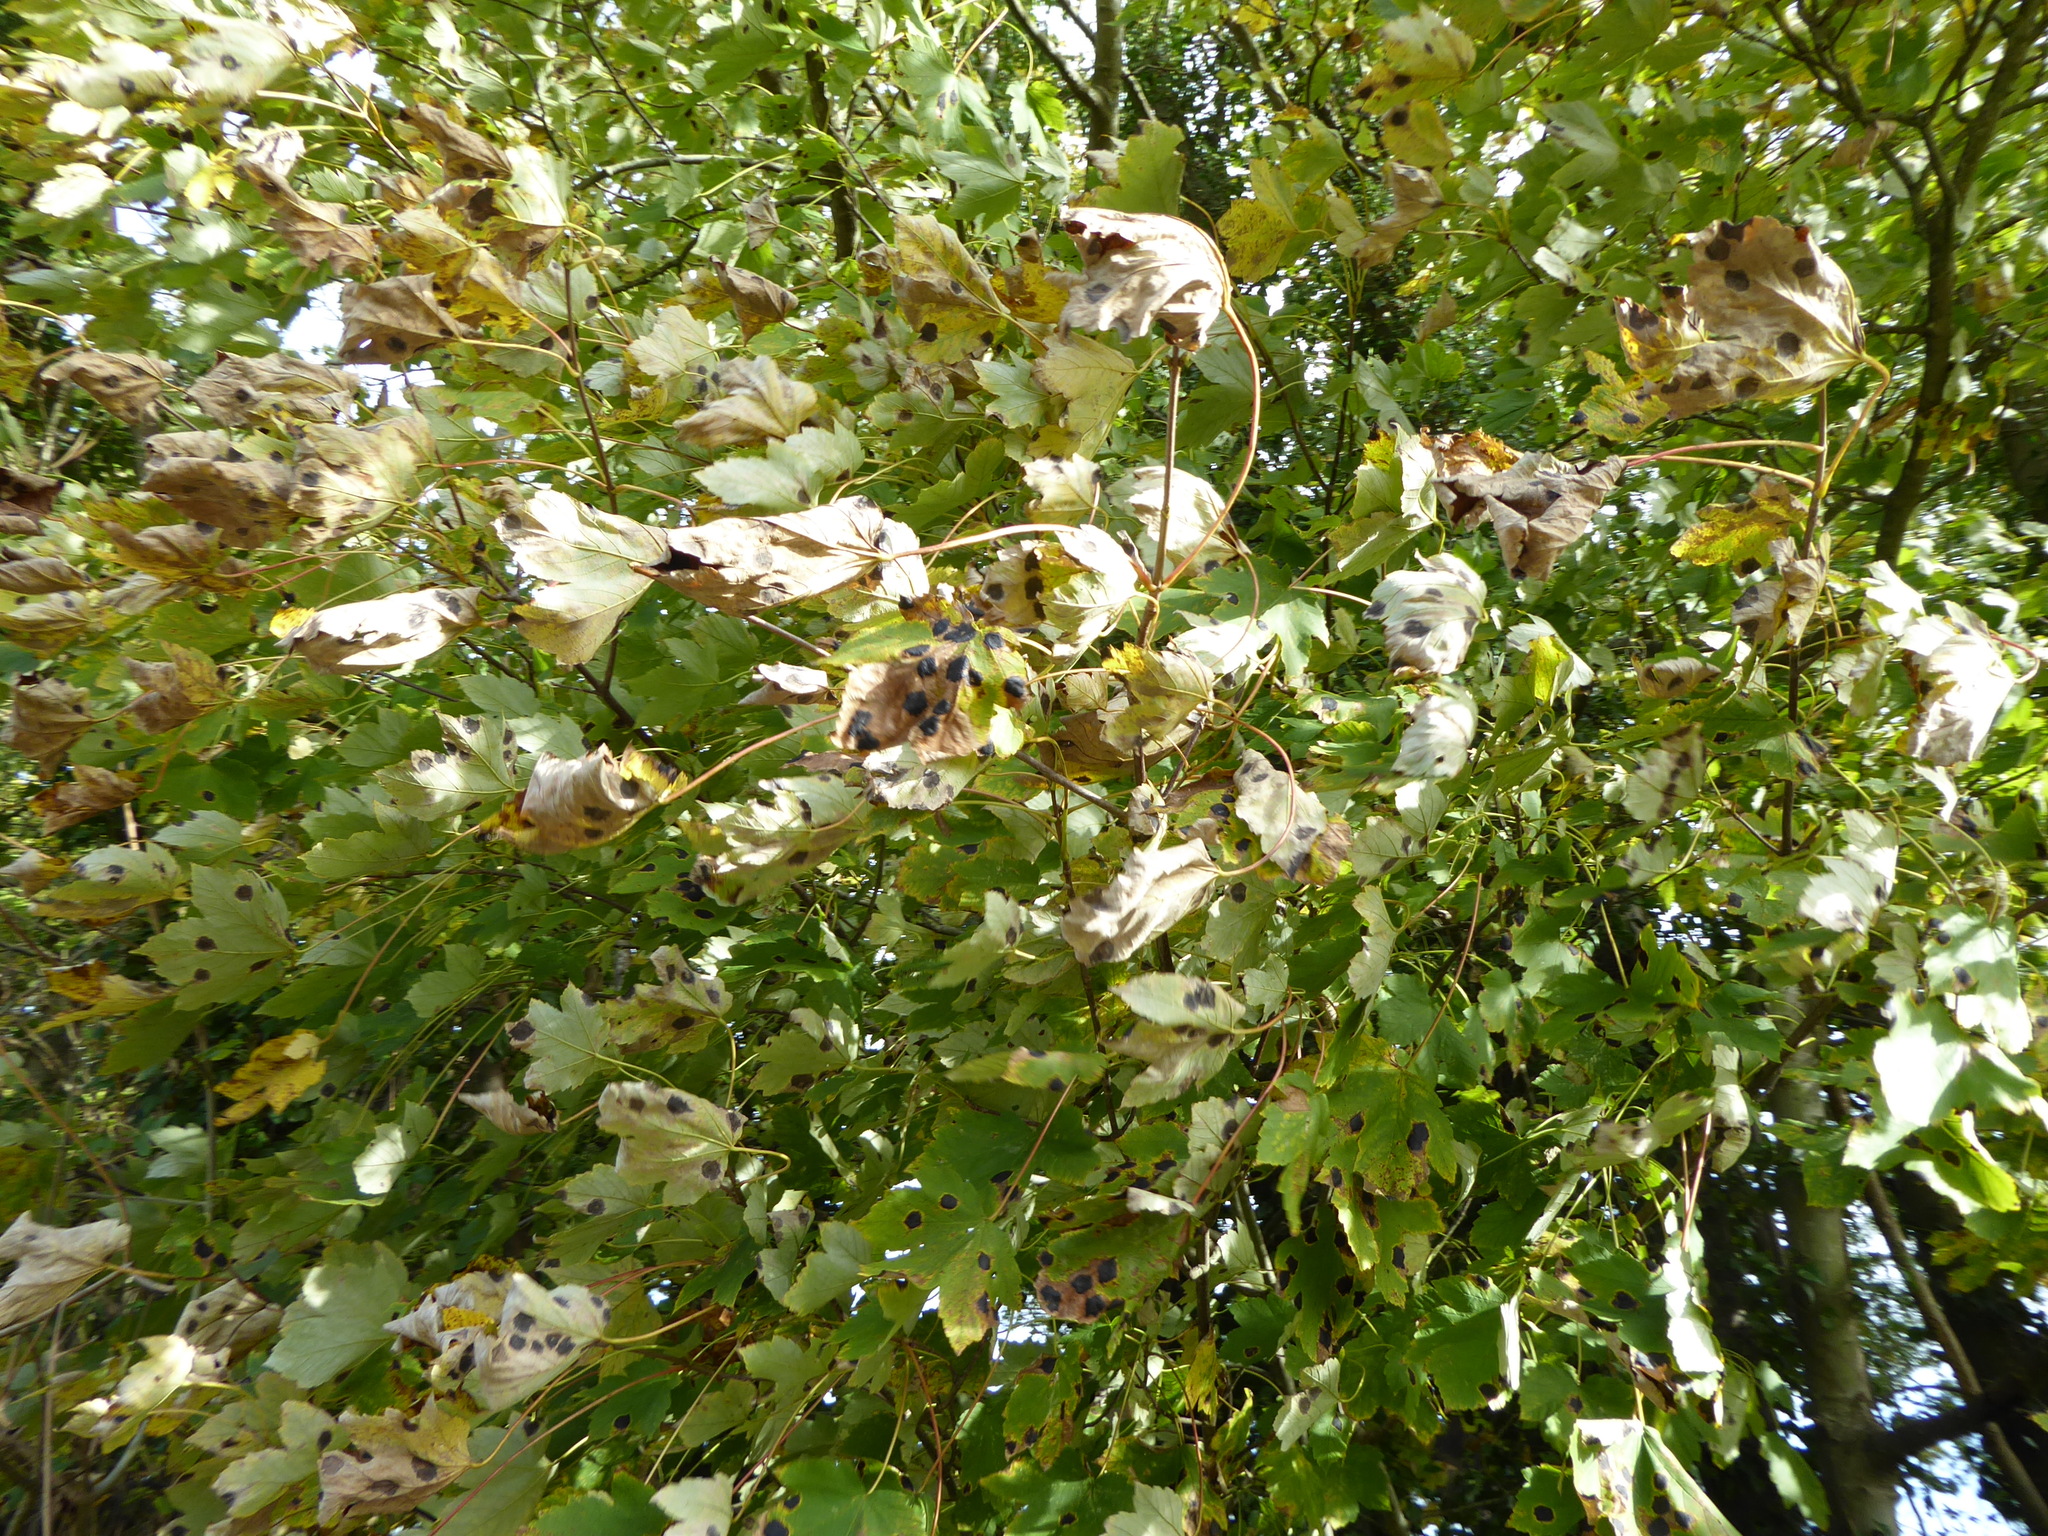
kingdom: Fungi
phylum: Ascomycota
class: Leotiomycetes
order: Rhytismatales
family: Rhytismataceae
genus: Rhytisma
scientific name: Rhytisma acerinum
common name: European tar spot
